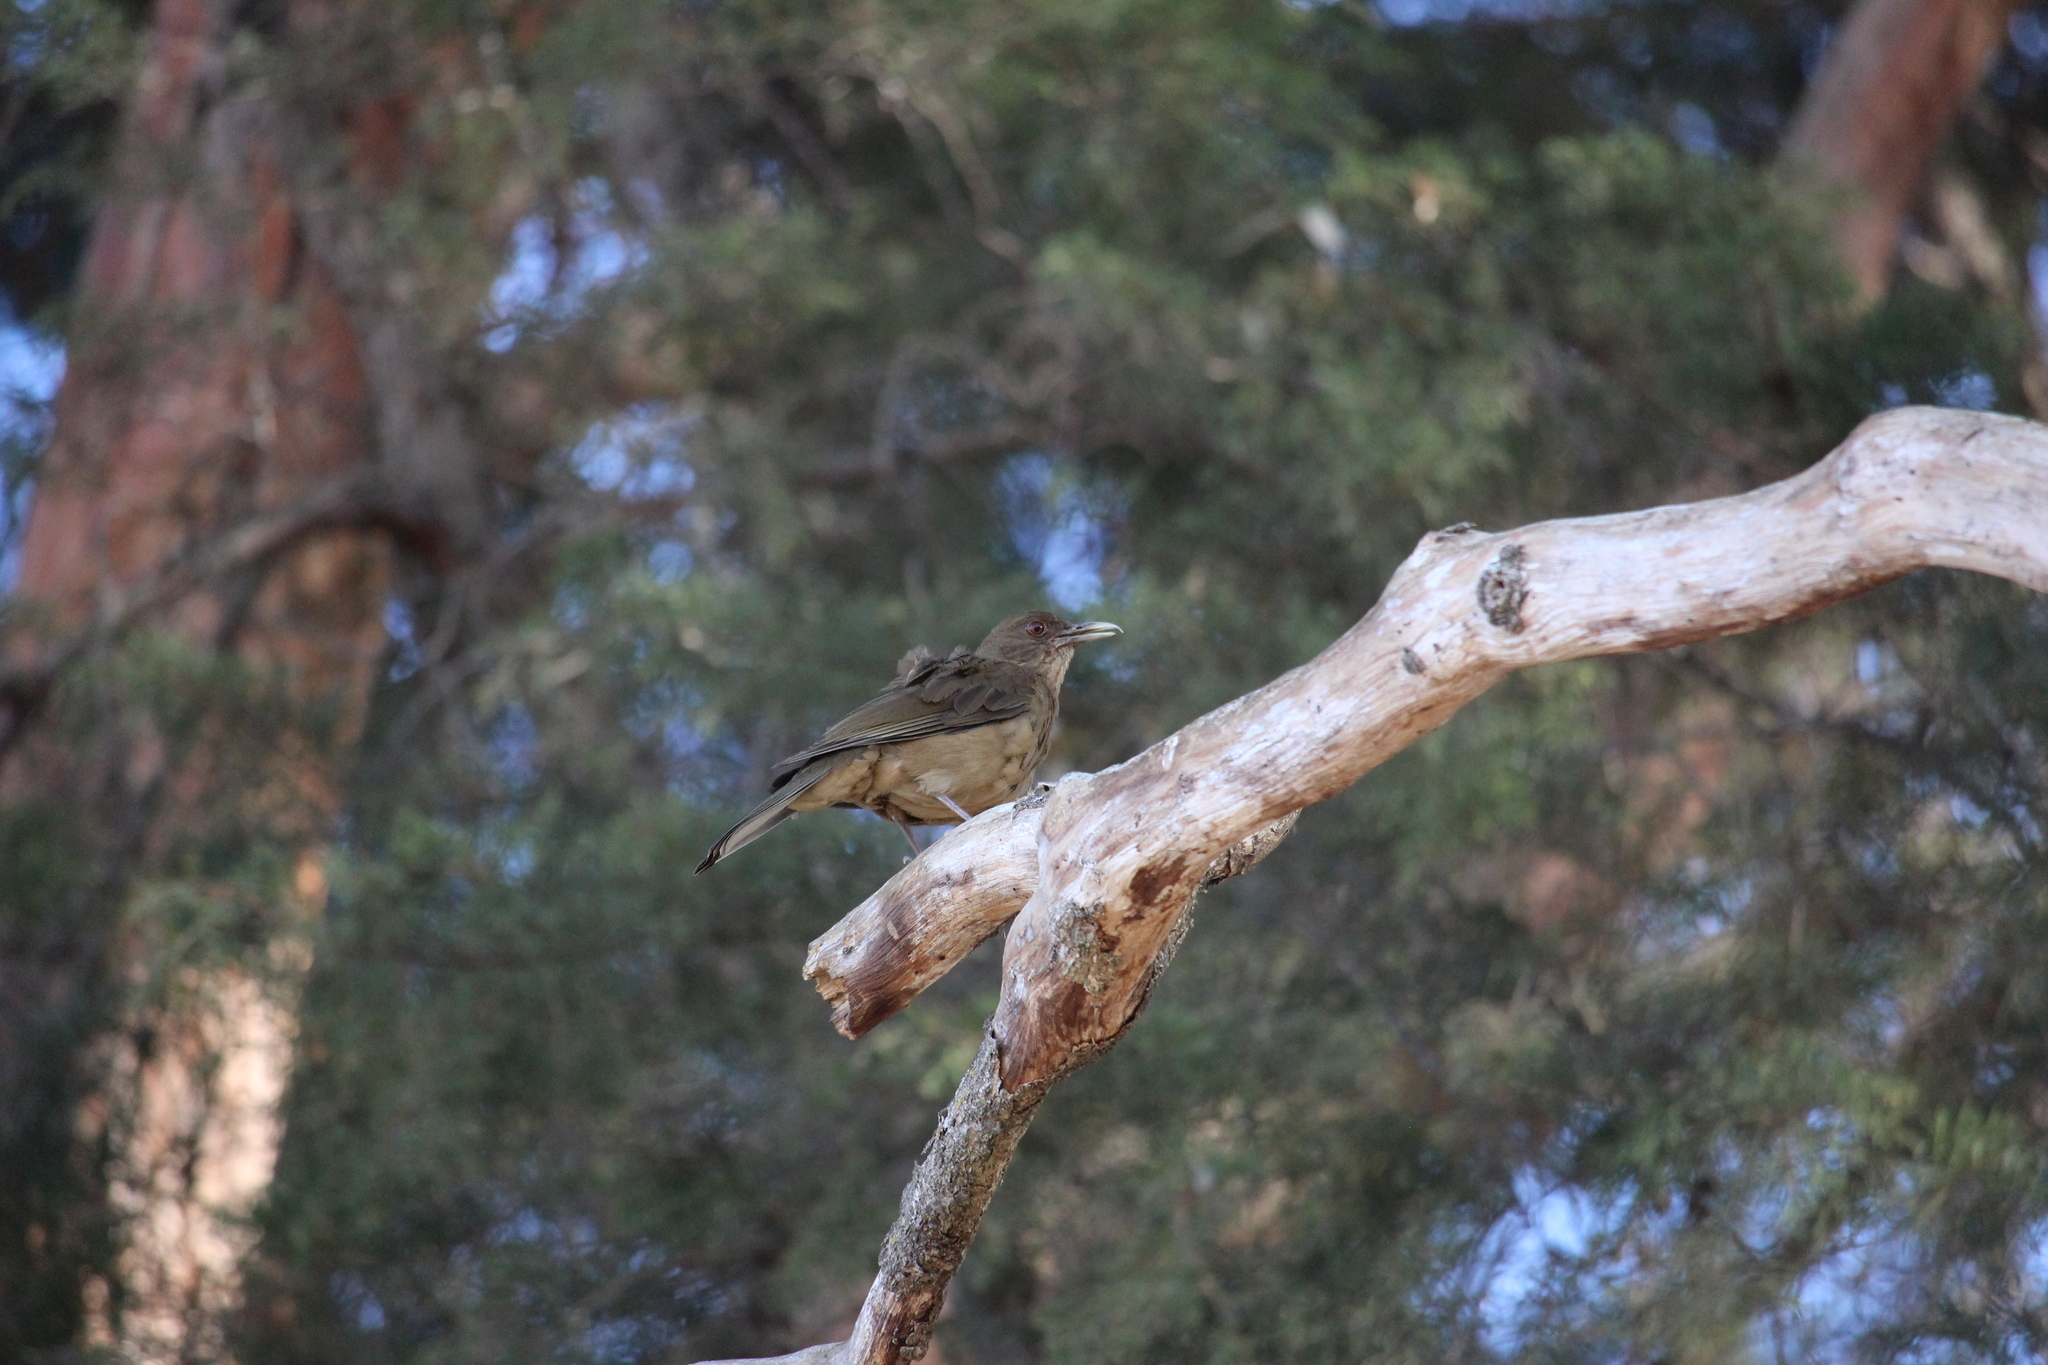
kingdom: Animalia
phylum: Chordata
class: Aves
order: Passeriformes
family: Turdidae
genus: Turdus
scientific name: Turdus grayi
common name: Clay-colored thrush
